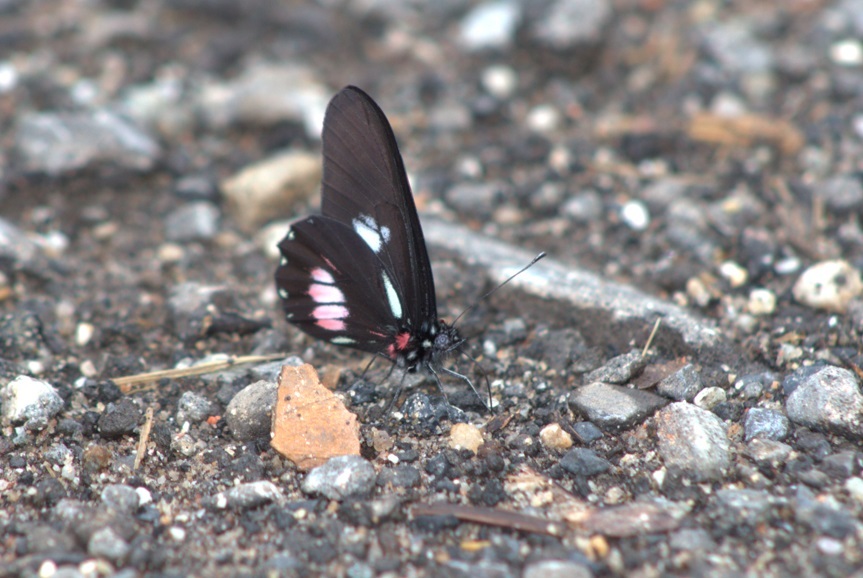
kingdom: Animalia
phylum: Arthropoda
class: Insecta
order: Lepidoptera
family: Pieridae
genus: Archonias
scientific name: Archonias brassolis
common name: Cattleheart white
